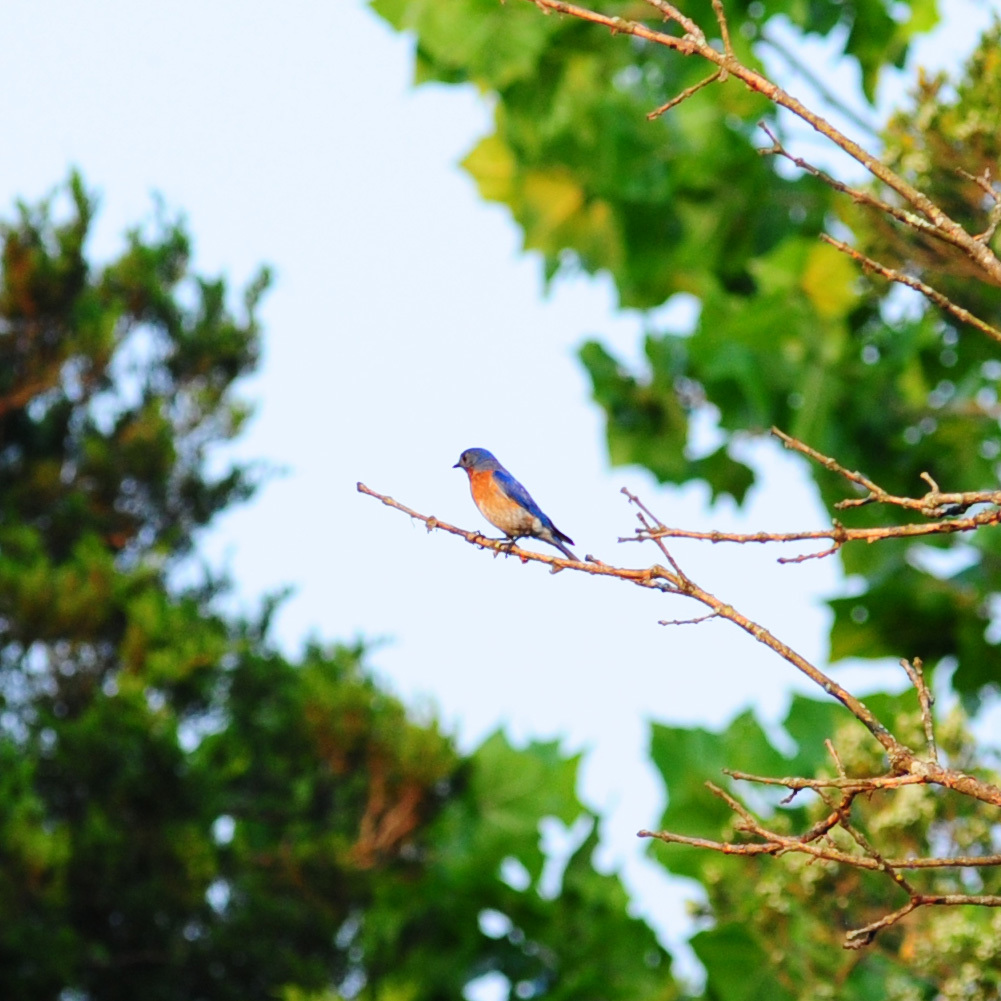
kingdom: Animalia
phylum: Chordata
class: Aves
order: Passeriformes
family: Turdidae
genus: Sialia
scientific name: Sialia sialis
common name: Eastern bluebird
